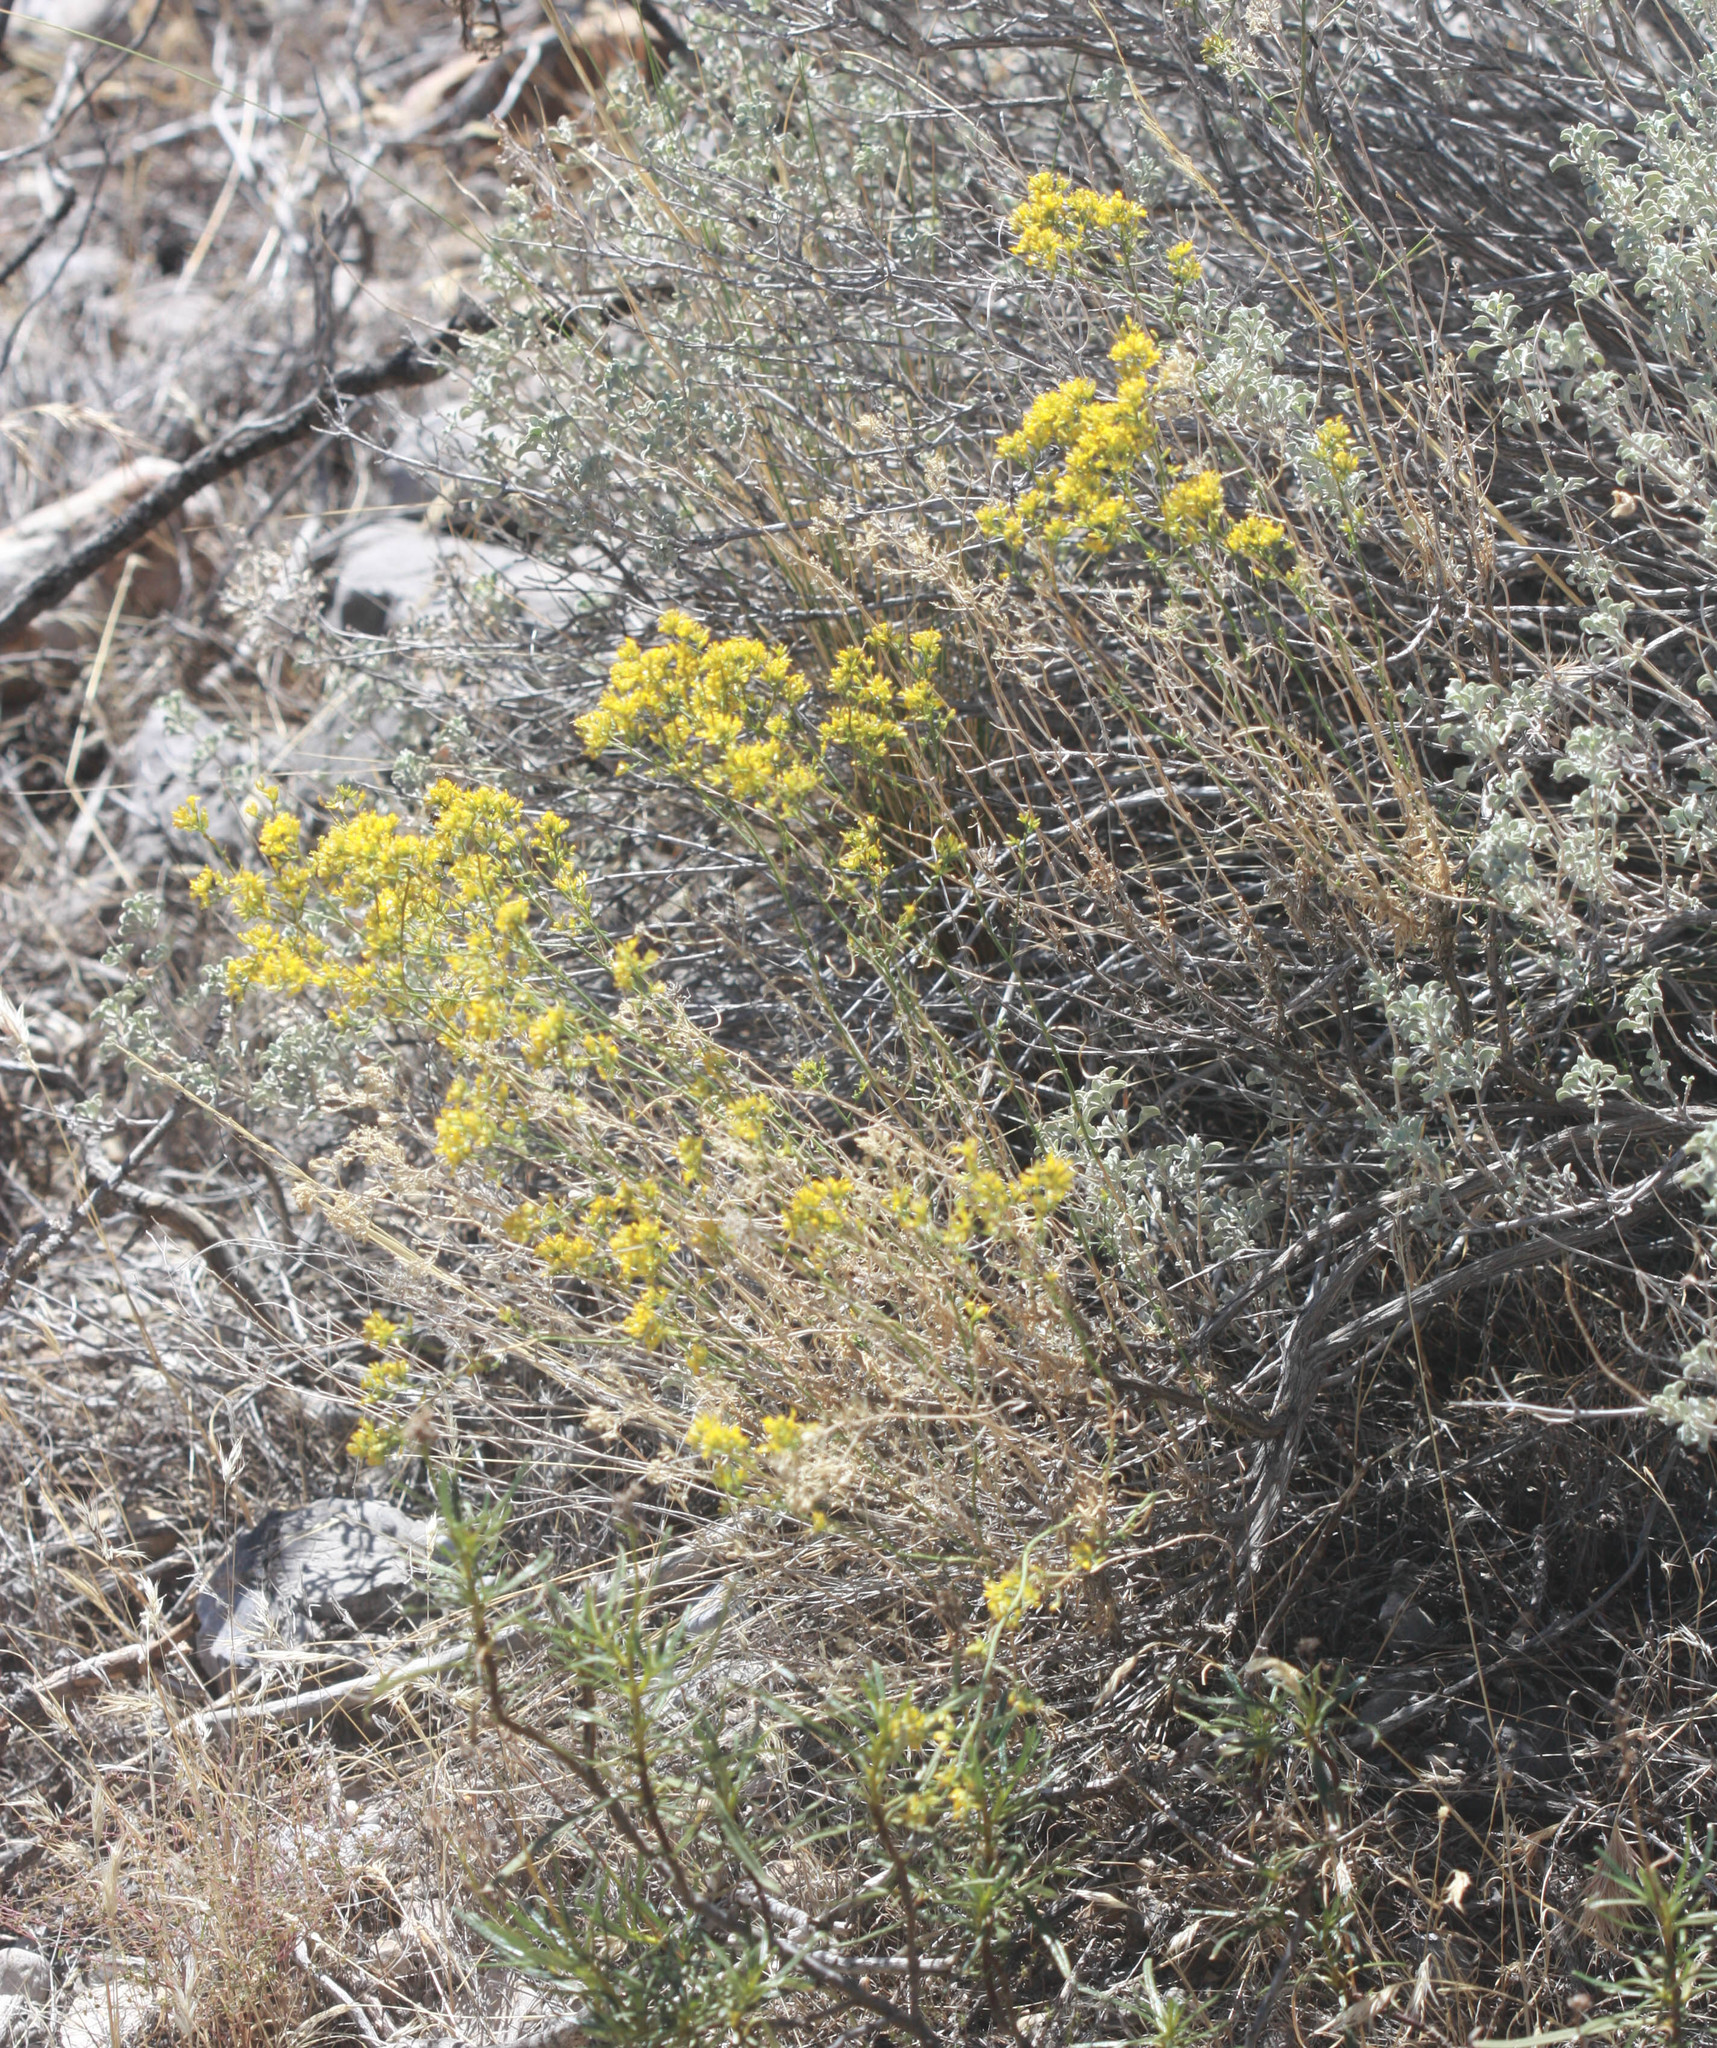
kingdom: Plantae
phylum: Tracheophyta
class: Magnoliopsida
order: Asterales
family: Asteraceae
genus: Gutierrezia
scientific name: Gutierrezia microcephala
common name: Thread snakeweed
